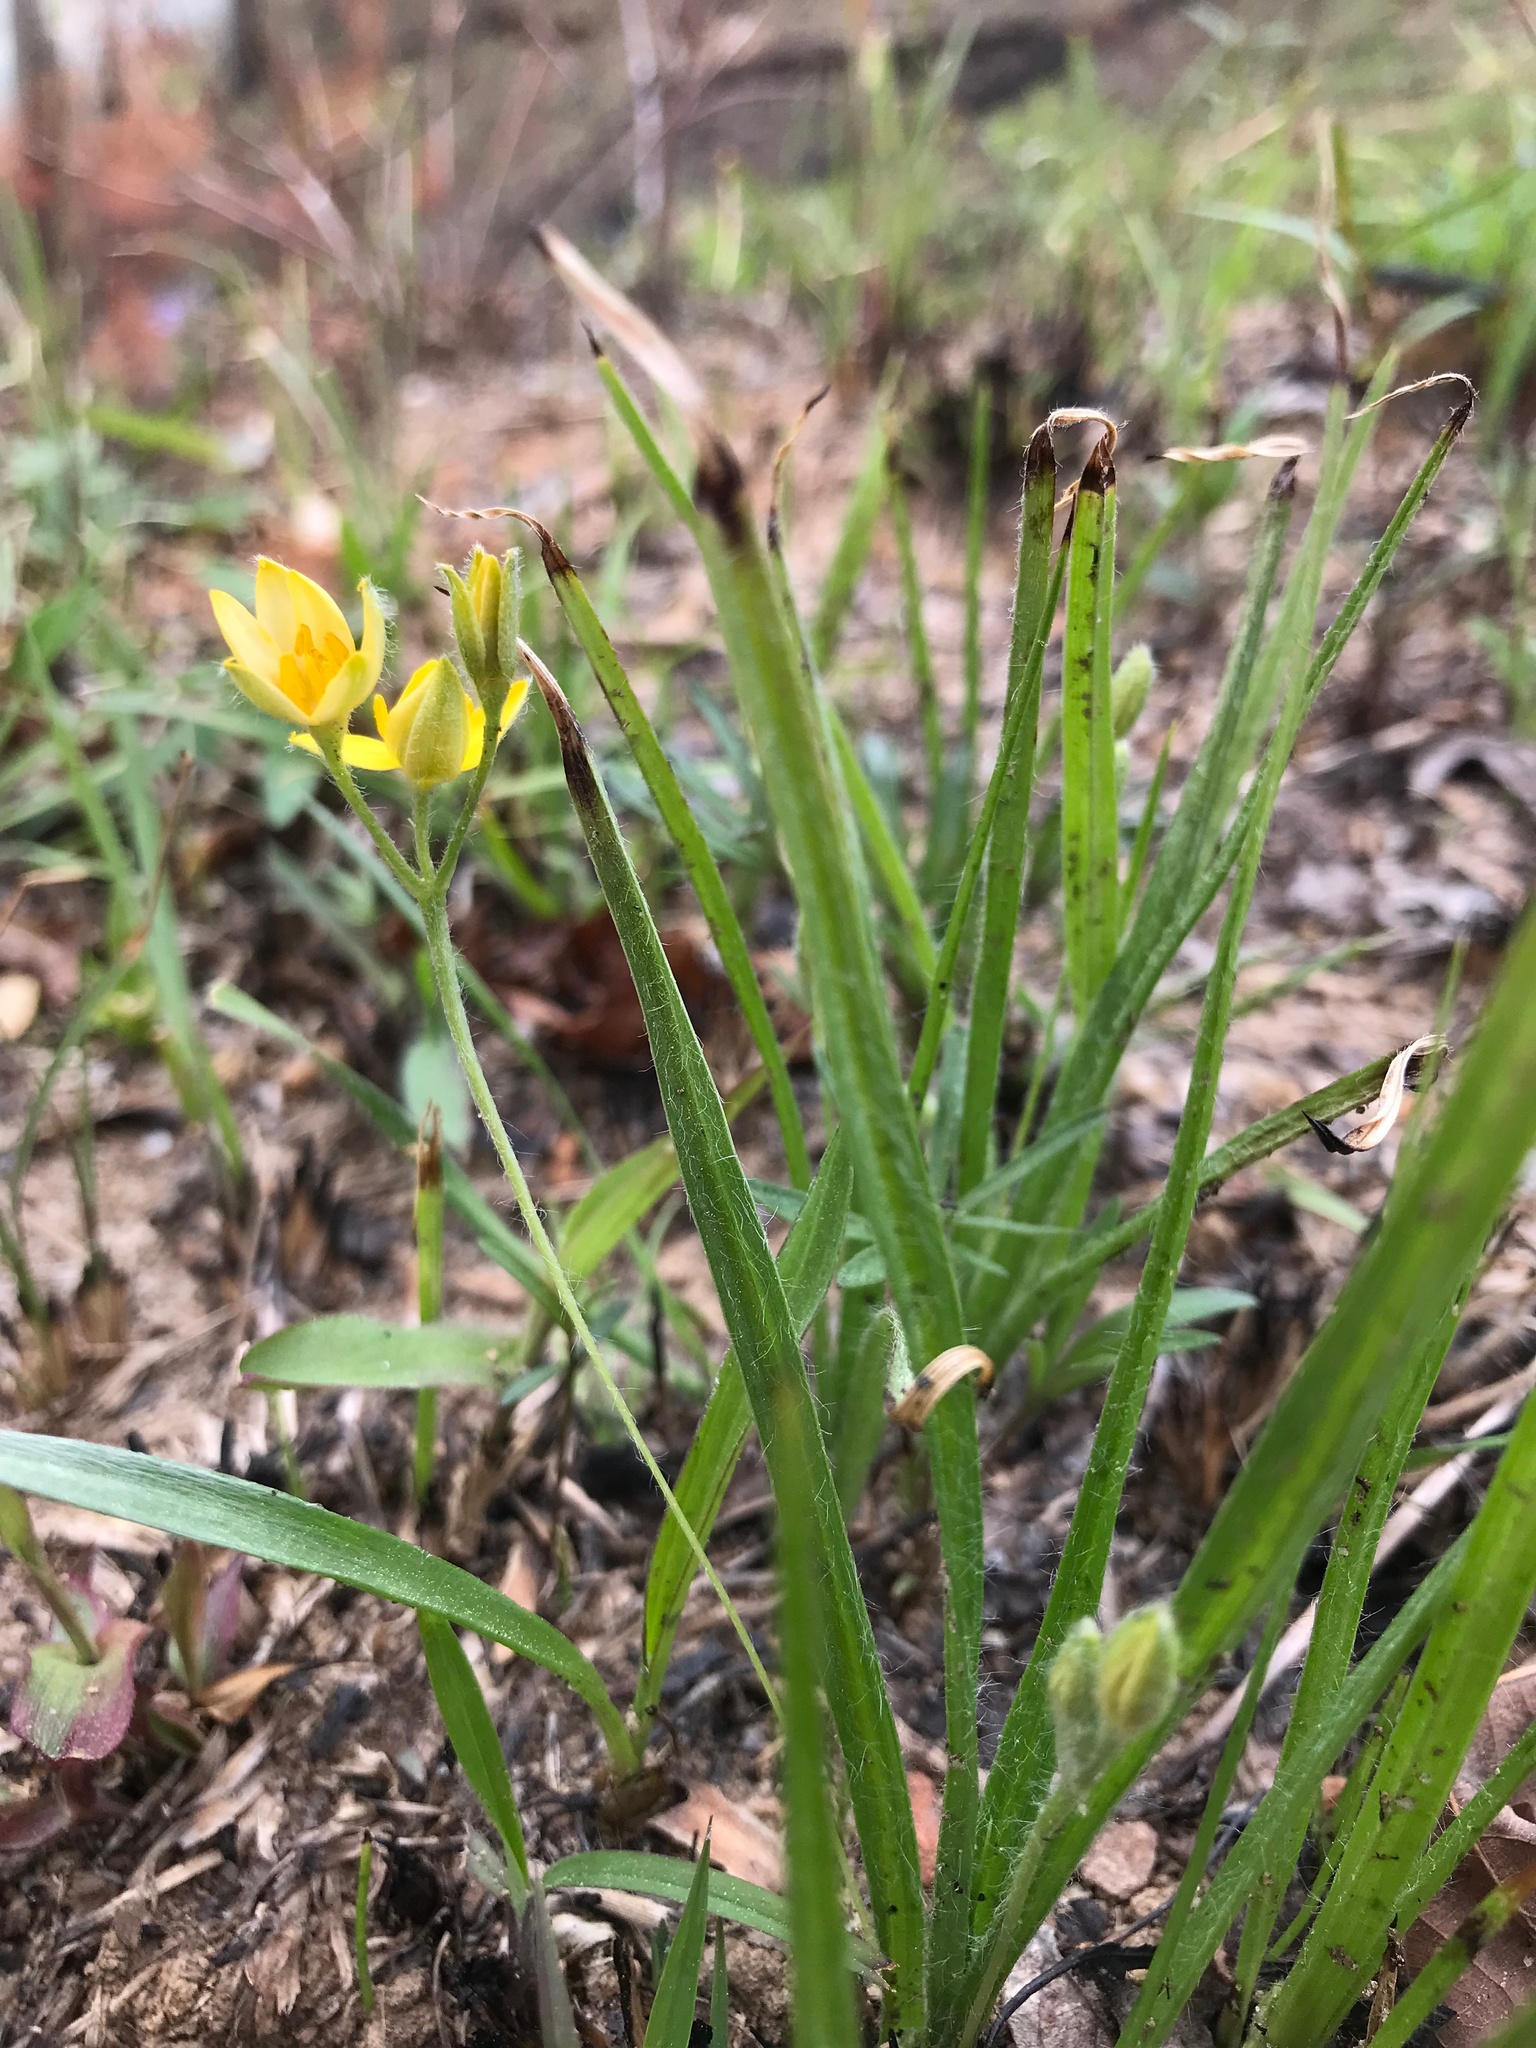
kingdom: Plantae
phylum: Tracheophyta
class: Liliopsida
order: Asparagales
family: Hypoxidaceae
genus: Hypoxis
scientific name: Hypoxis hirsuta
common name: Common goldstar
